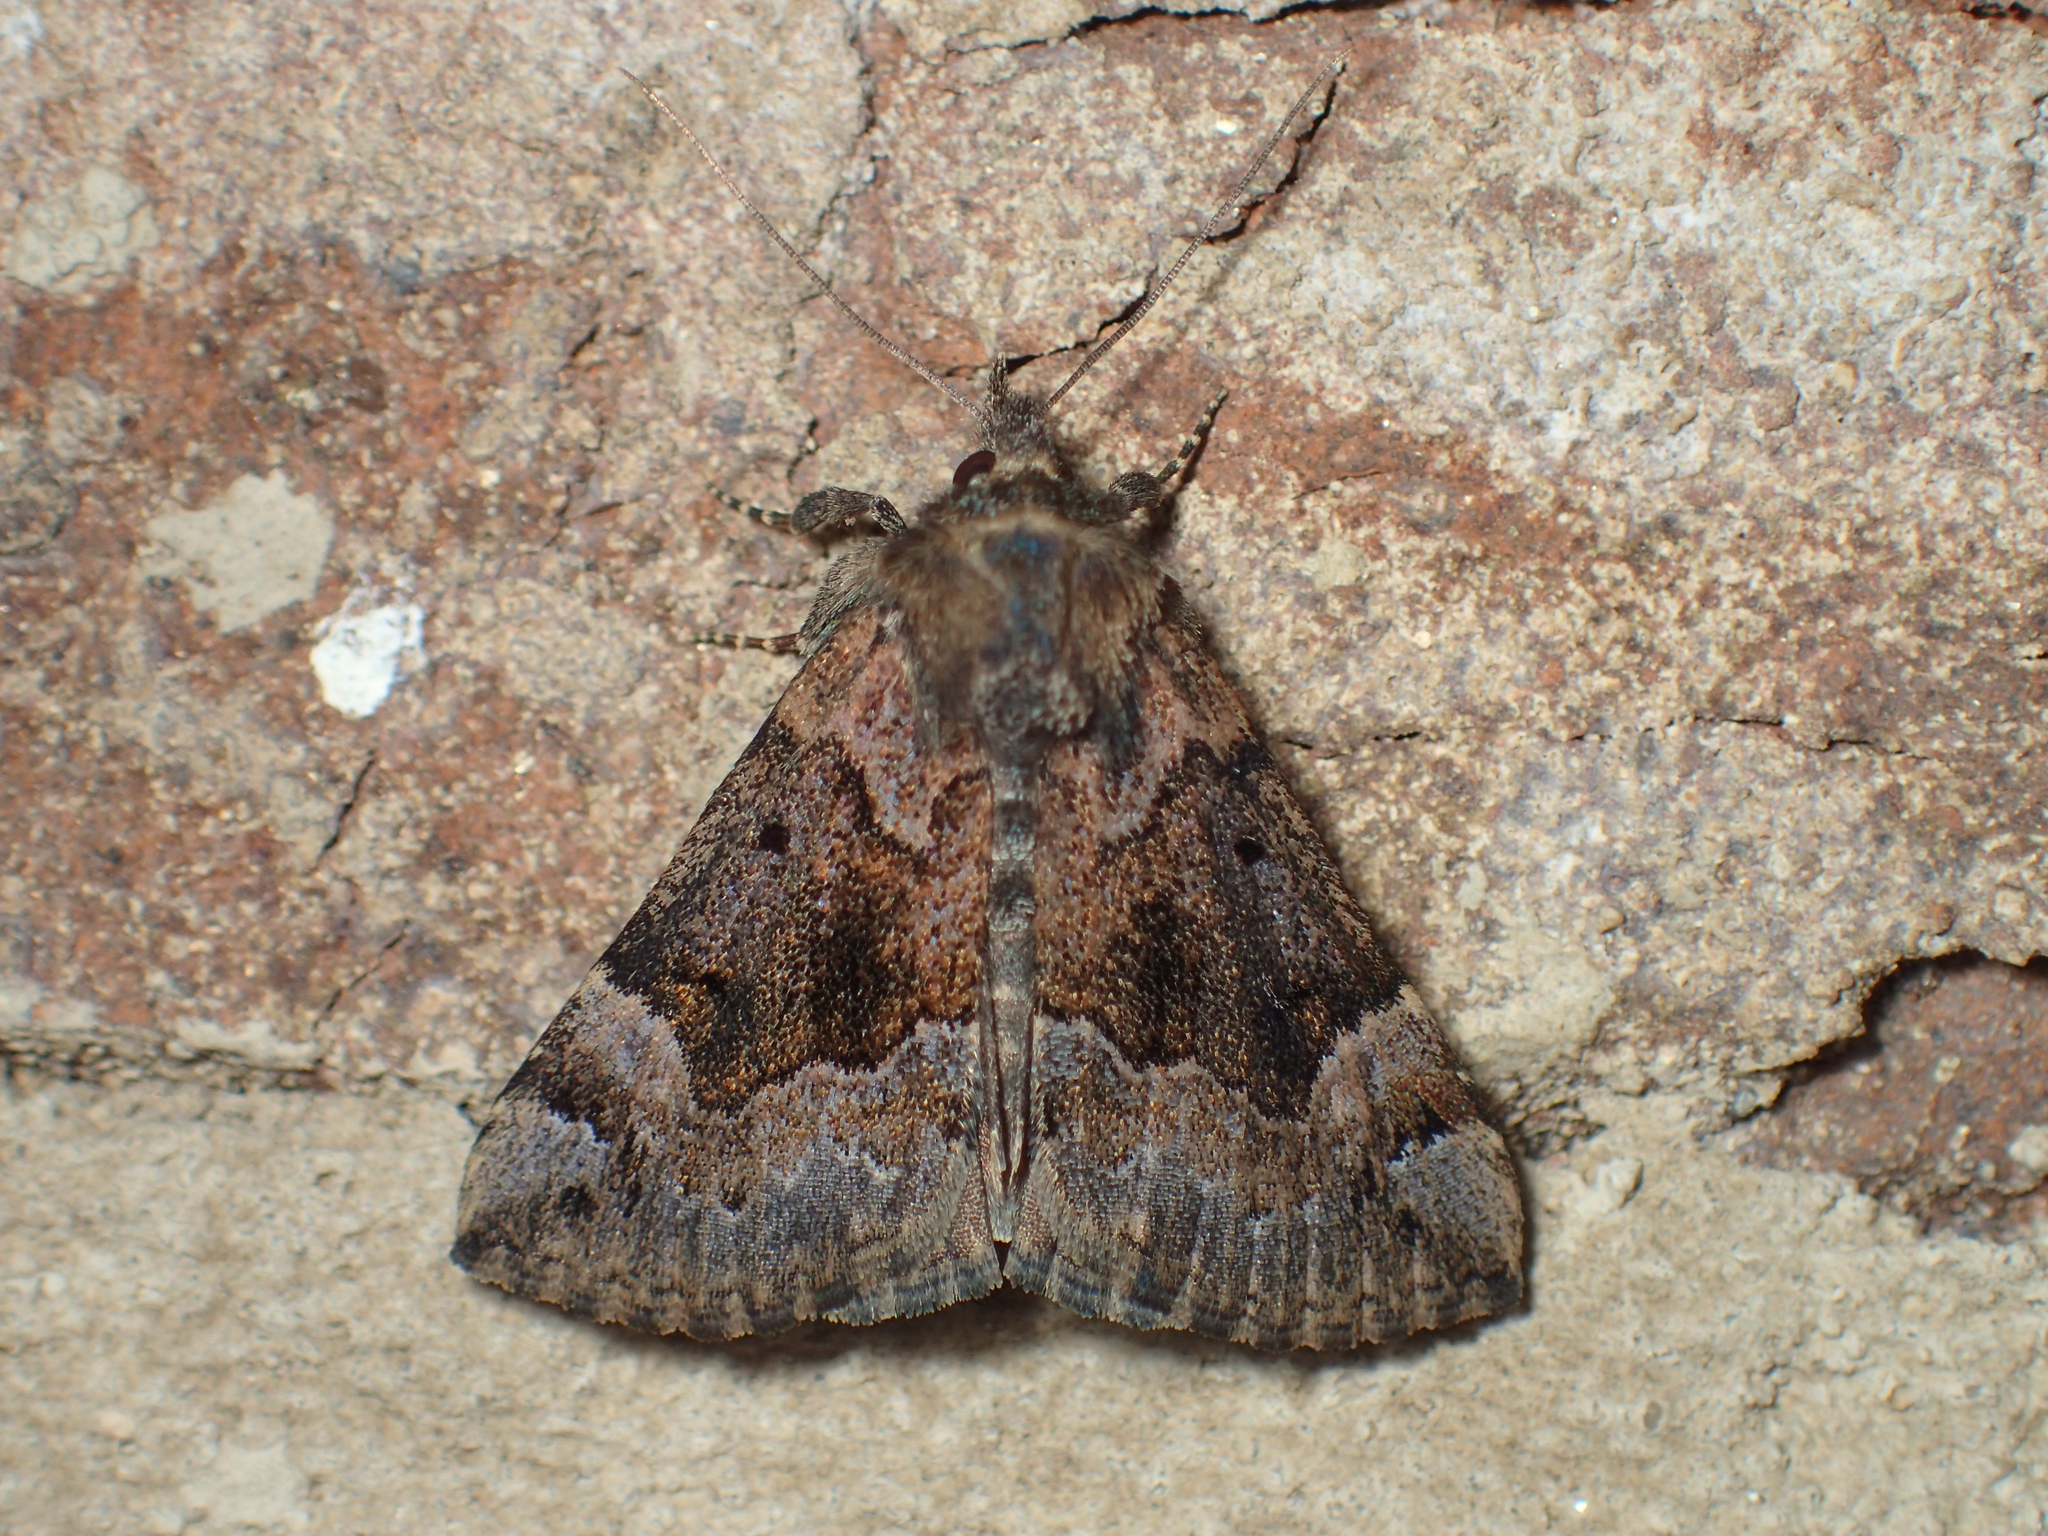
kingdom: Animalia
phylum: Arthropoda
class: Insecta
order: Lepidoptera
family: Erebidae
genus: Hypena
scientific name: Hypena palparia
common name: Mottled bomolocha moth
